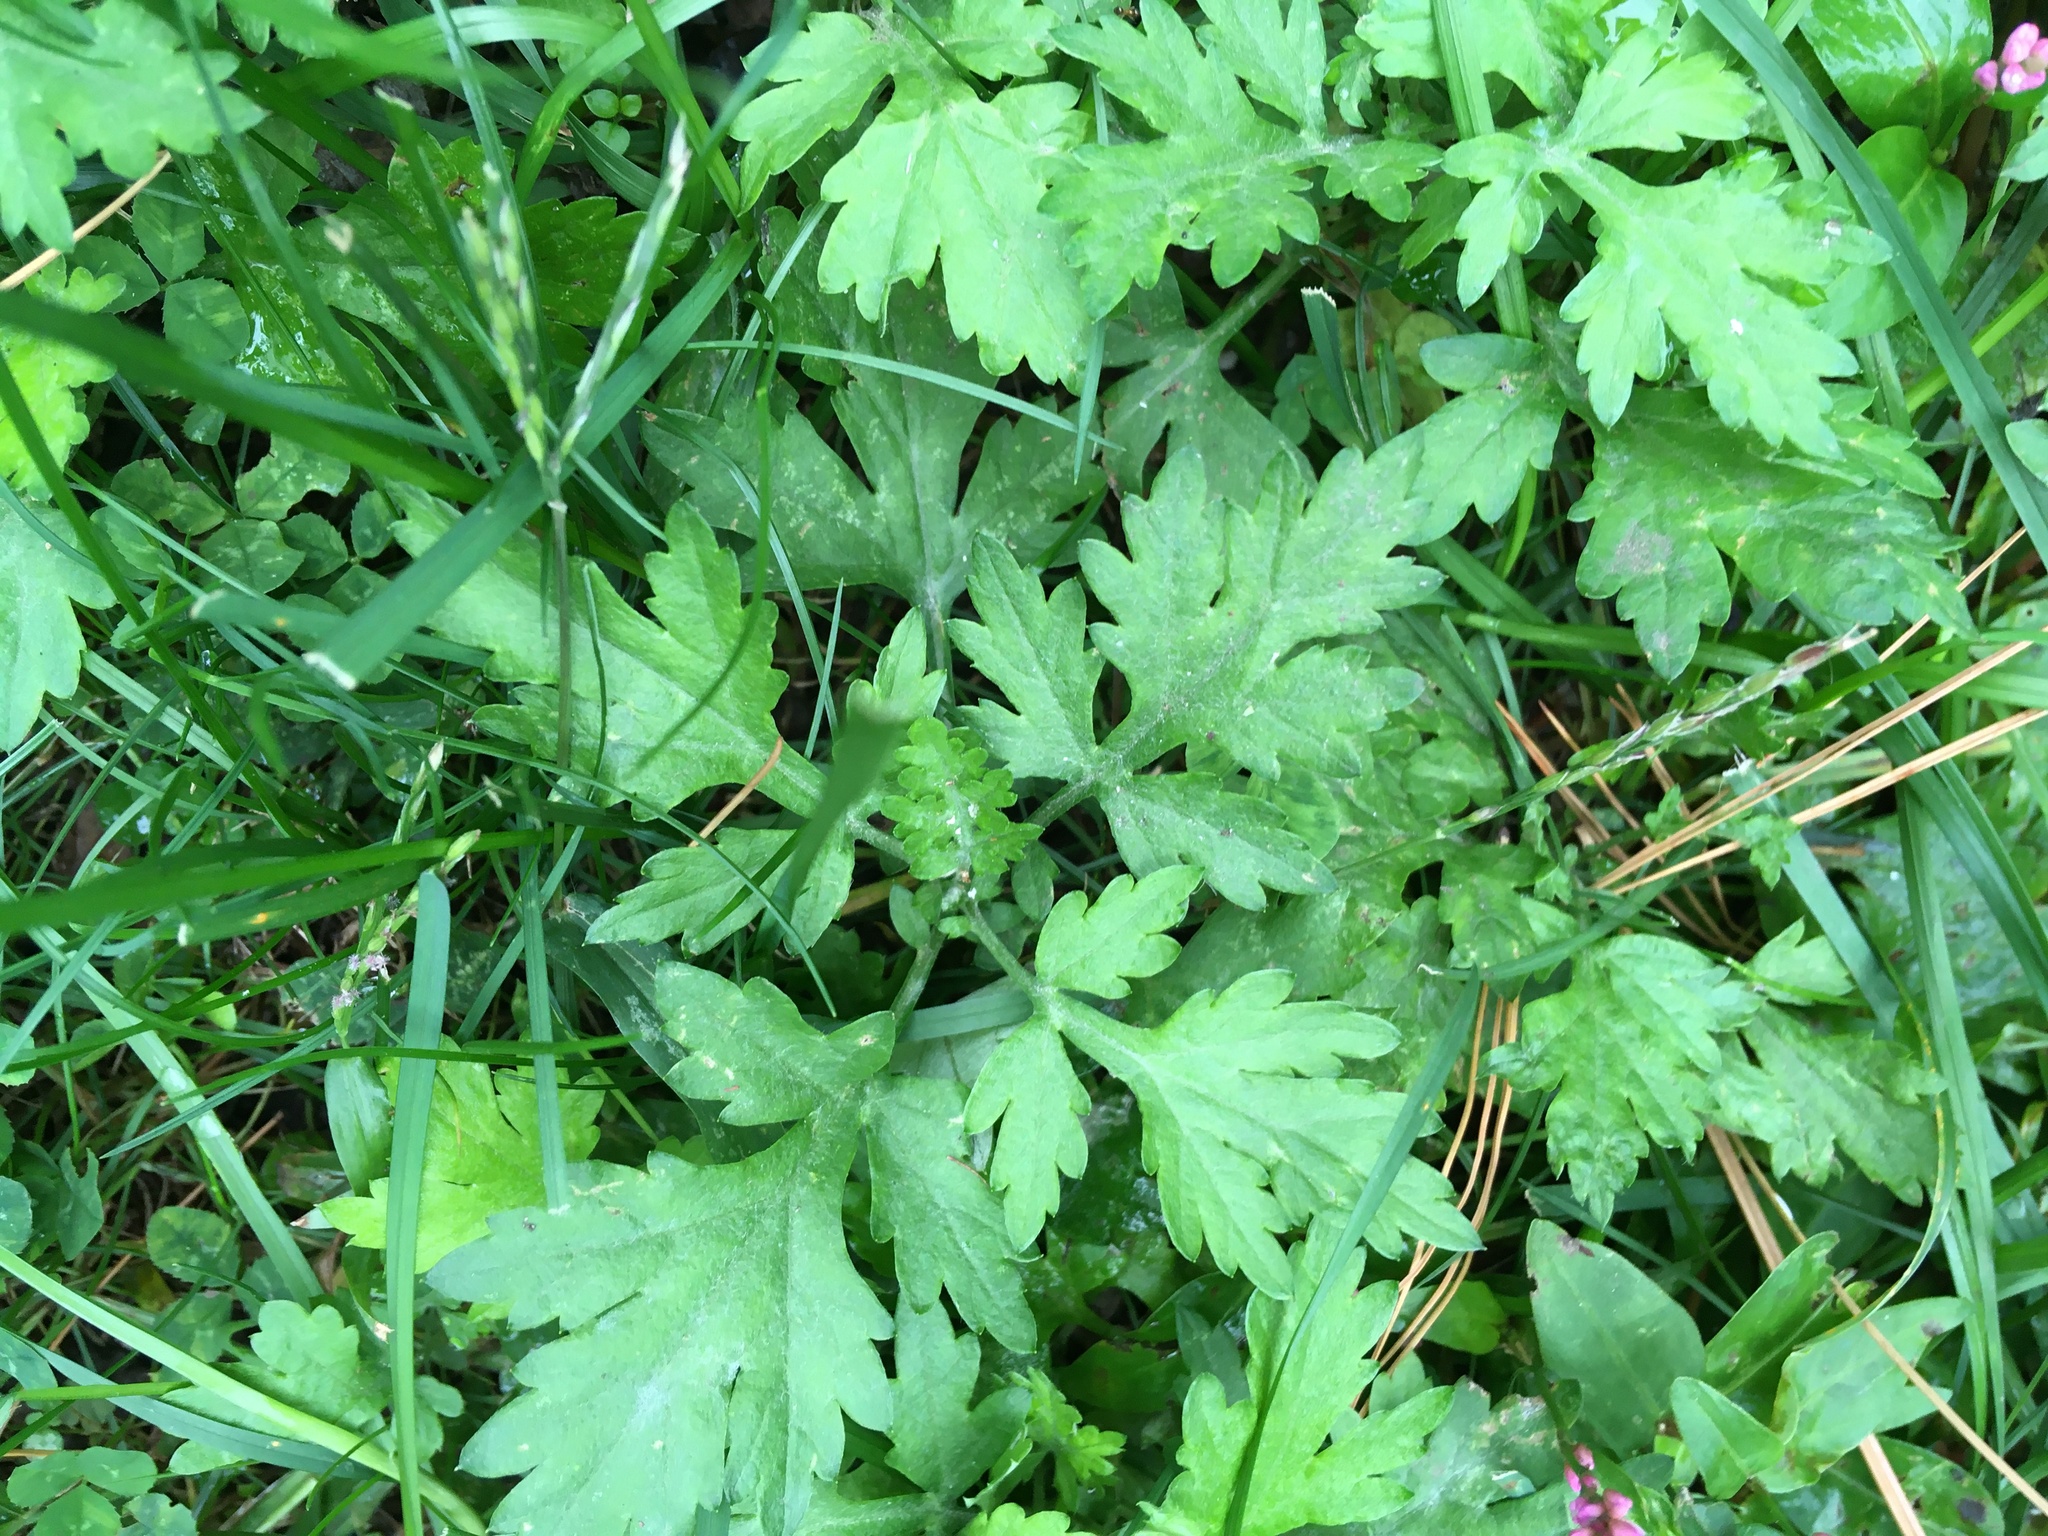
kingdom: Plantae
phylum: Tracheophyta
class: Magnoliopsida
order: Asterales
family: Asteraceae
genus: Artemisia
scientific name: Artemisia vulgaris
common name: Mugwort
